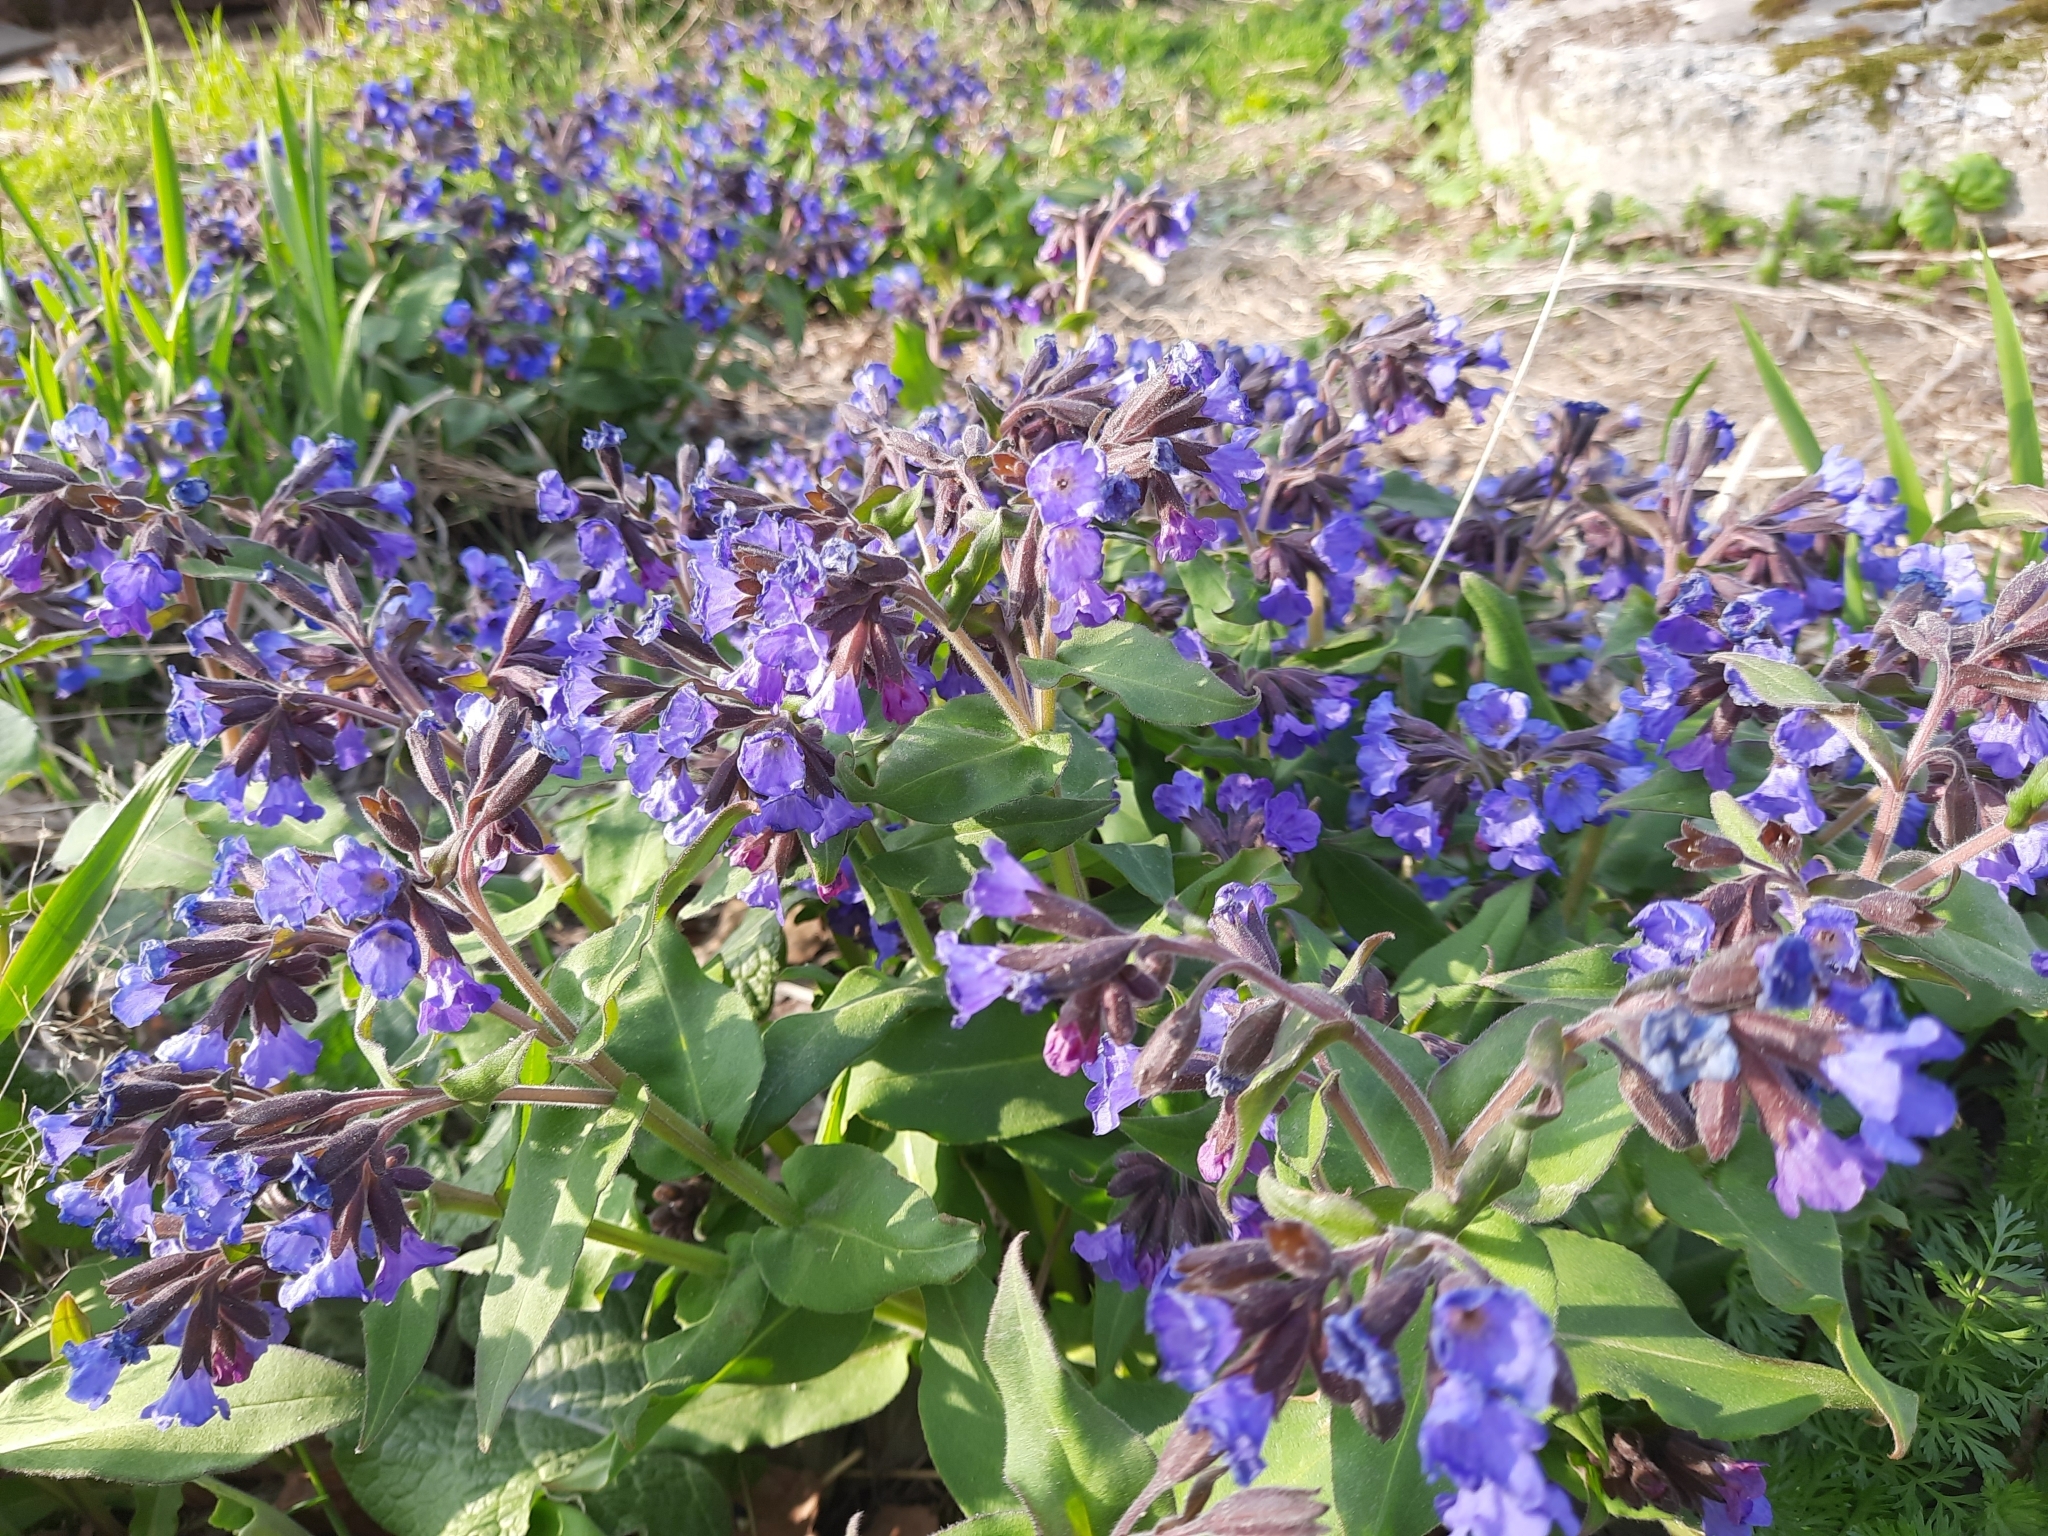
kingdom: Plantae
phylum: Tracheophyta
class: Magnoliopsida
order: Boraginales
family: Boraginaceae
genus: Pulmonaria
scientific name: Pulmonaria mollis
